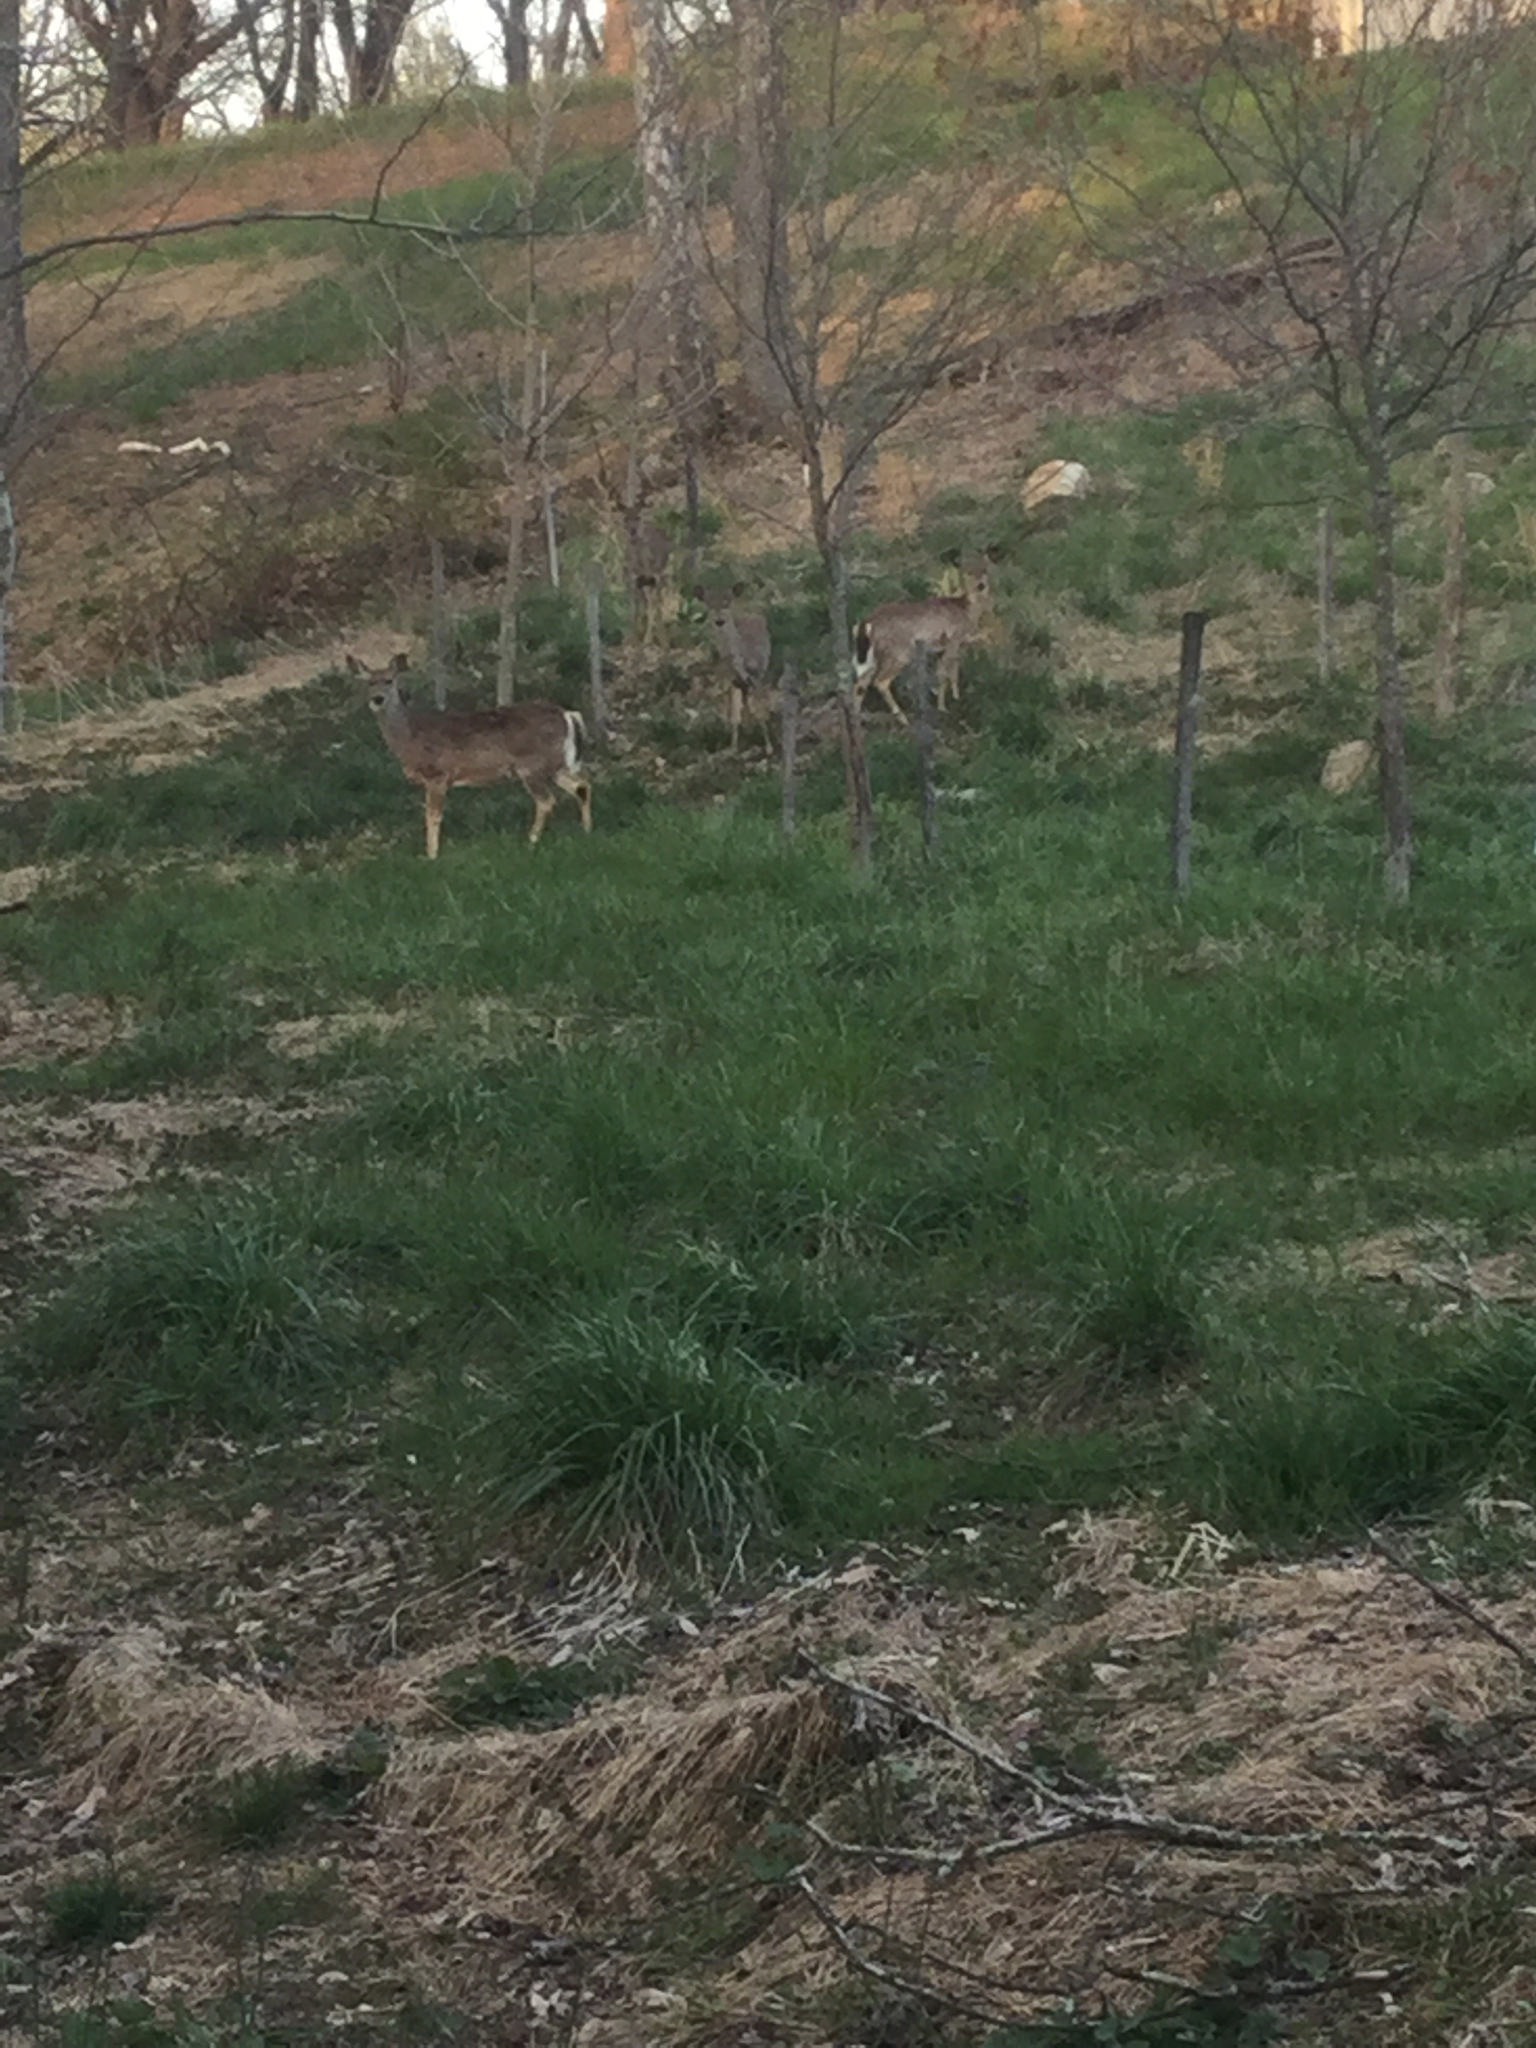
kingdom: Animalia
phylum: Chordata
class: Mammalia
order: Artiodactyla
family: Cervidae
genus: Odocoileus
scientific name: Odocoileus virginianus
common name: White-tailed deer
